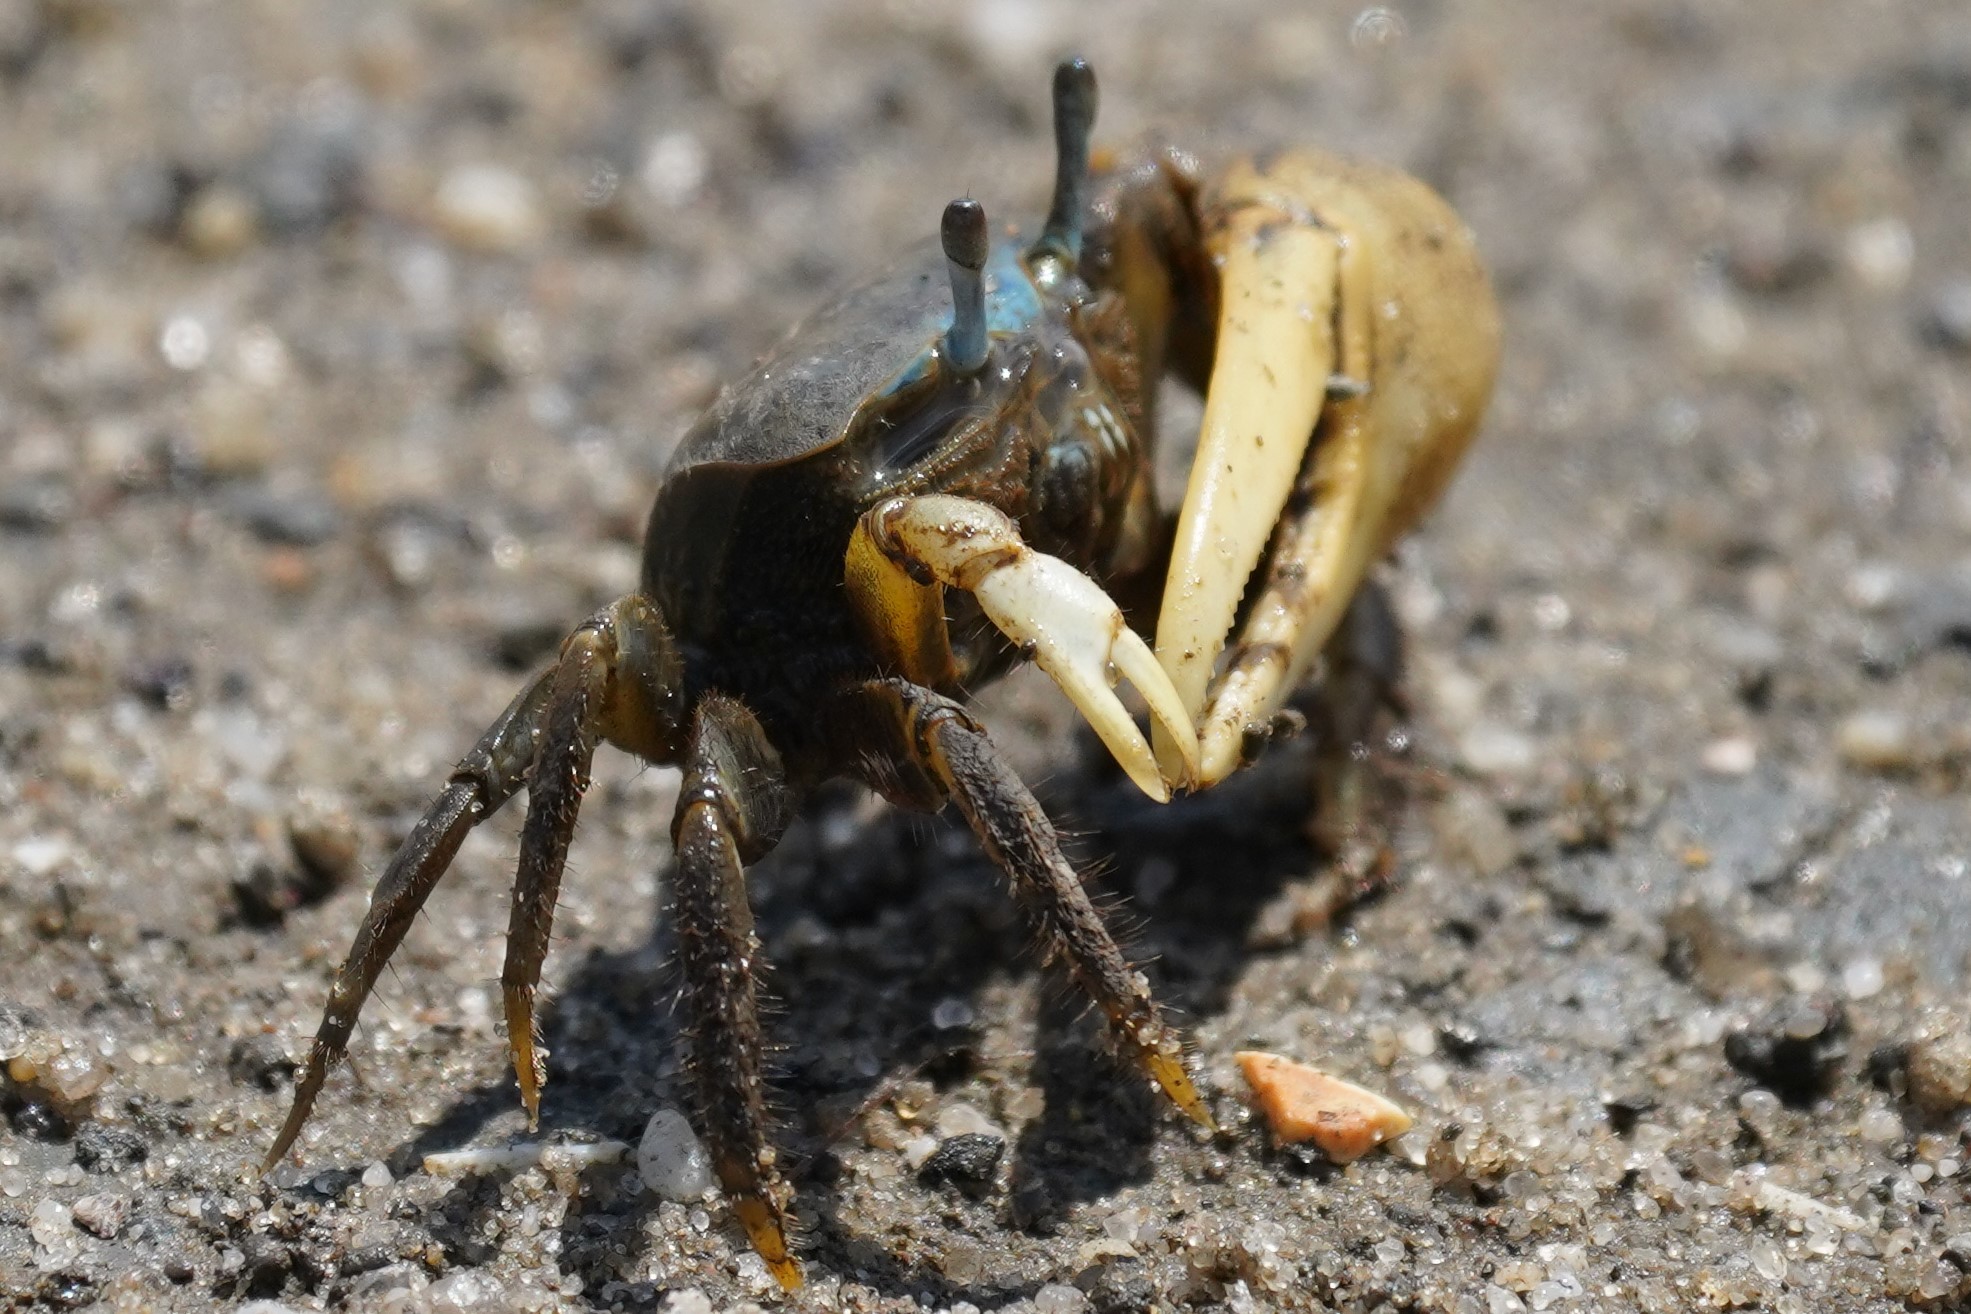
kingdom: Animalia
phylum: Arthropoda
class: Malacostraca
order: Decapoda
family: Ocypodidae
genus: Minuca
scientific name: Minuca pugnax
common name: Mud fiddler crab
